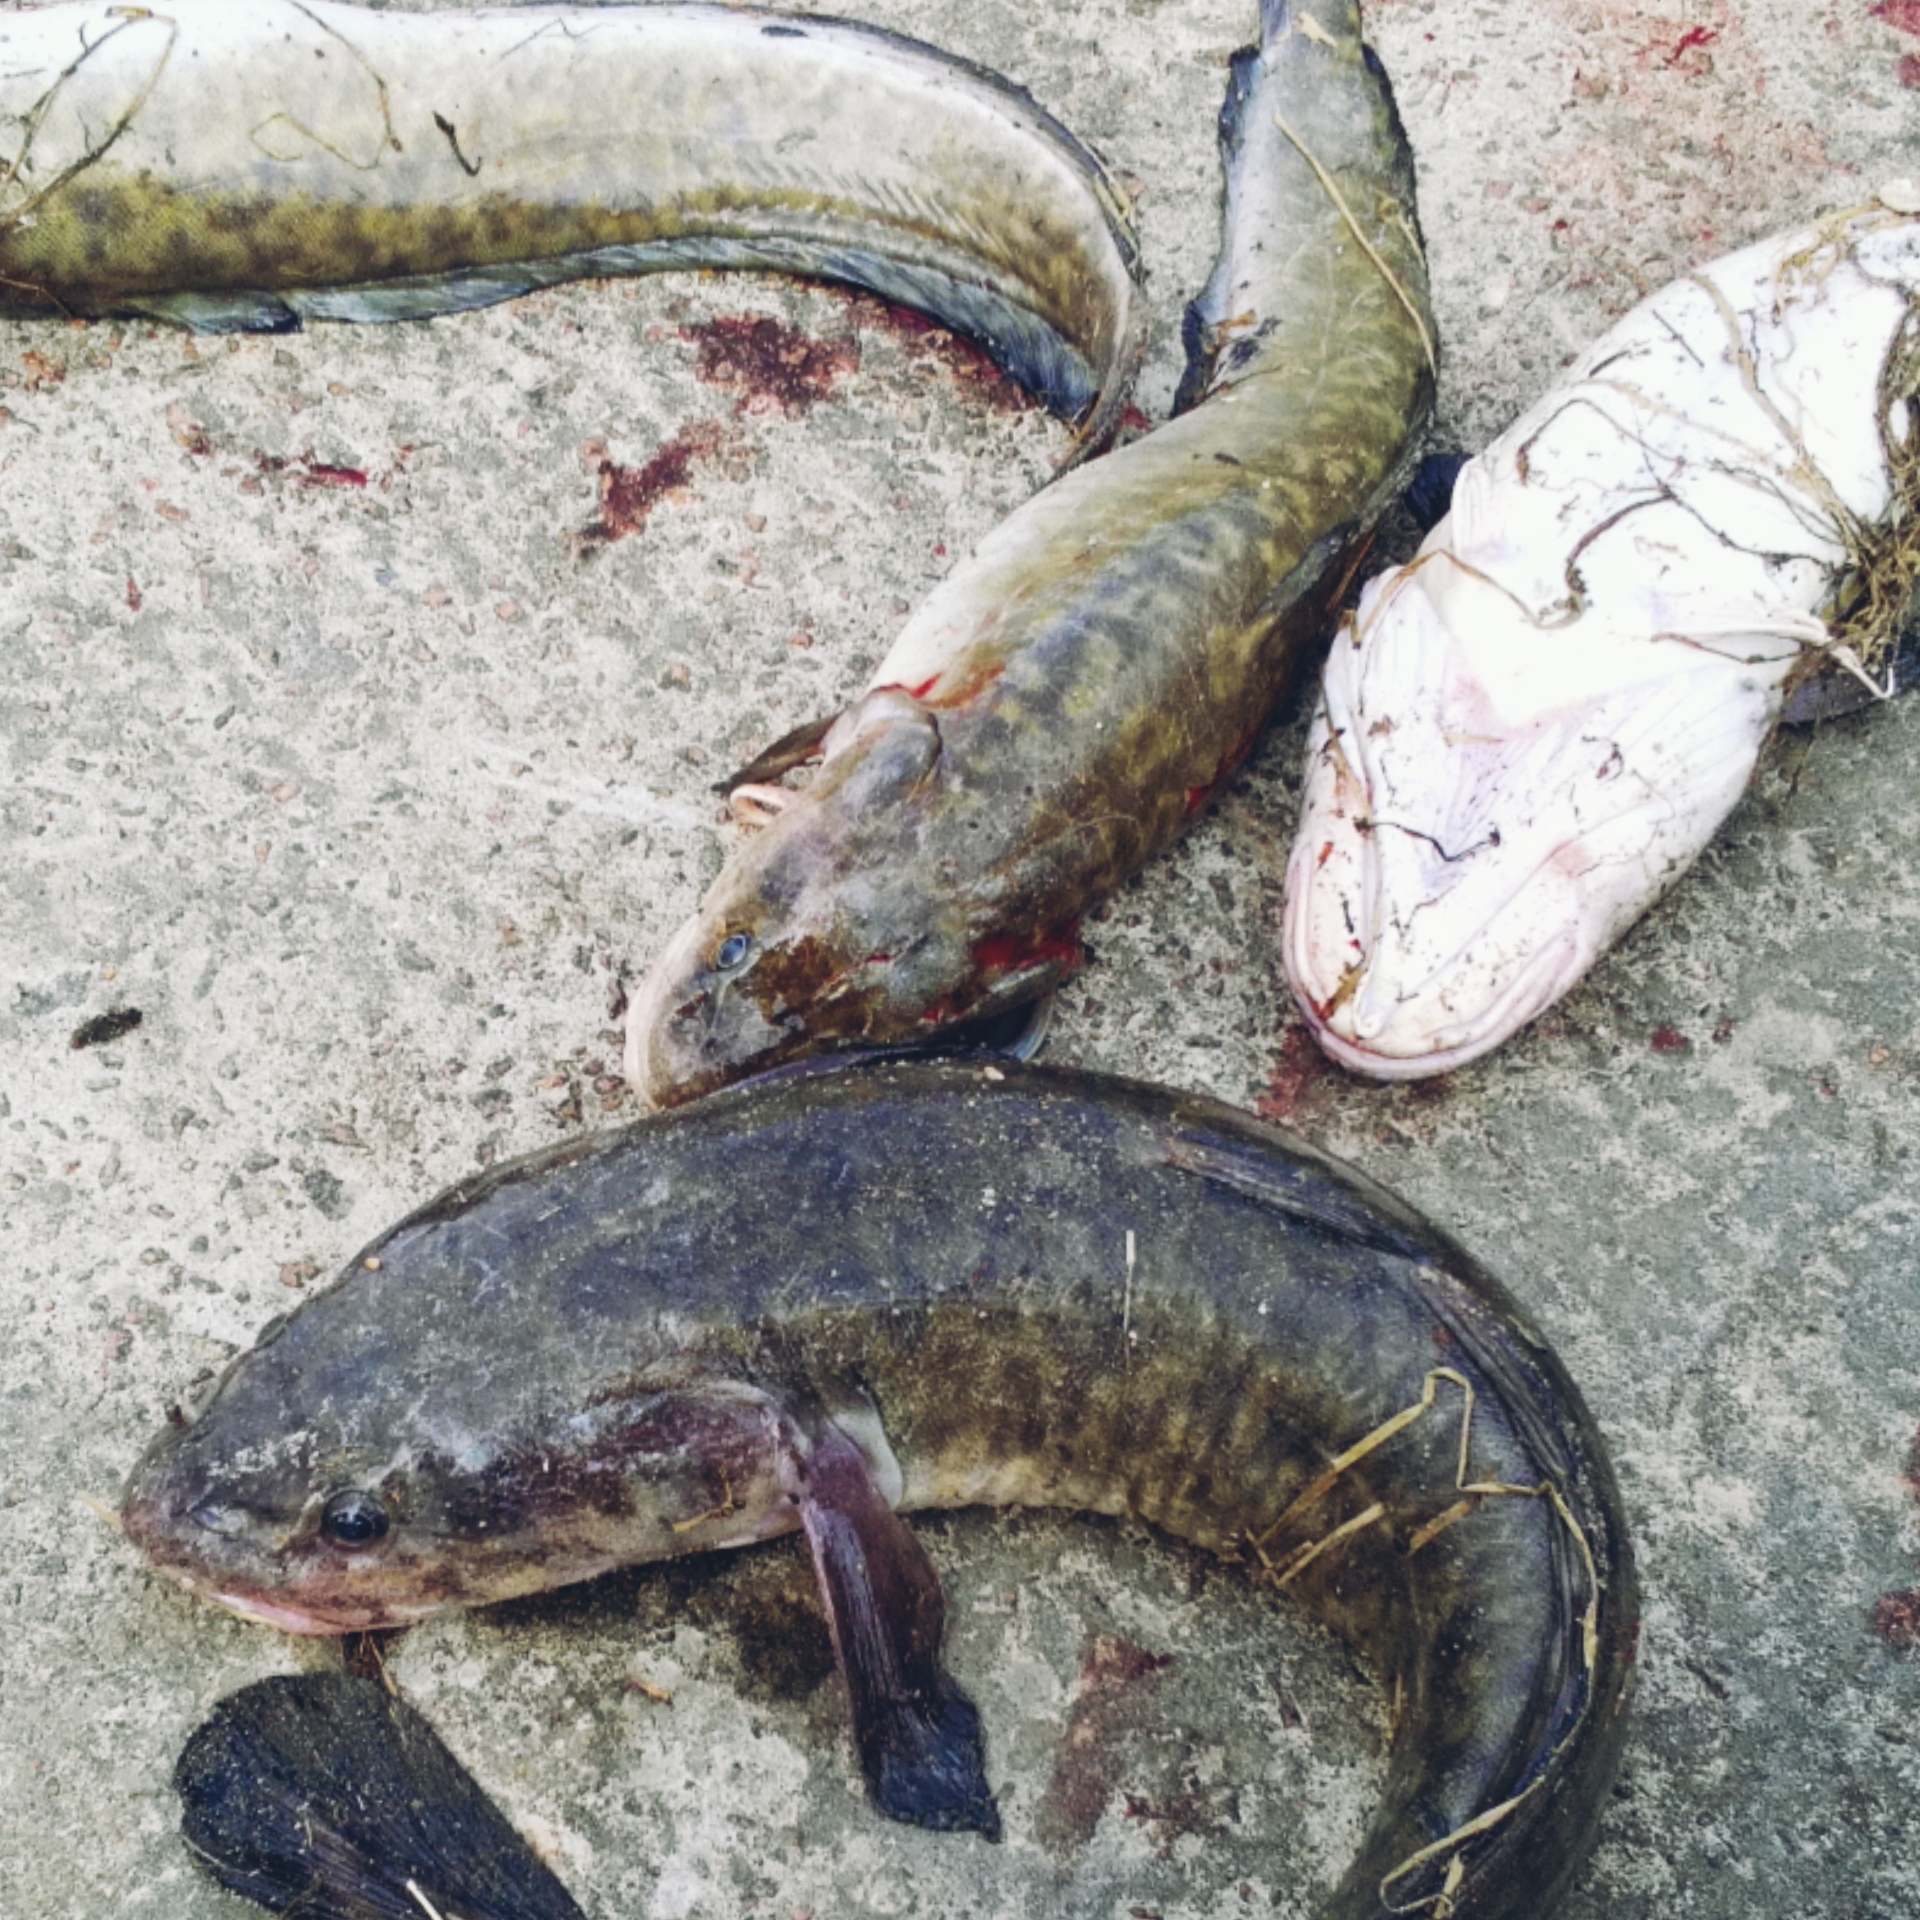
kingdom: Animalia
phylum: Chordata
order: Gadiformes
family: Lotidae
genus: Lota
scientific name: Lota lota
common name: Burbot
